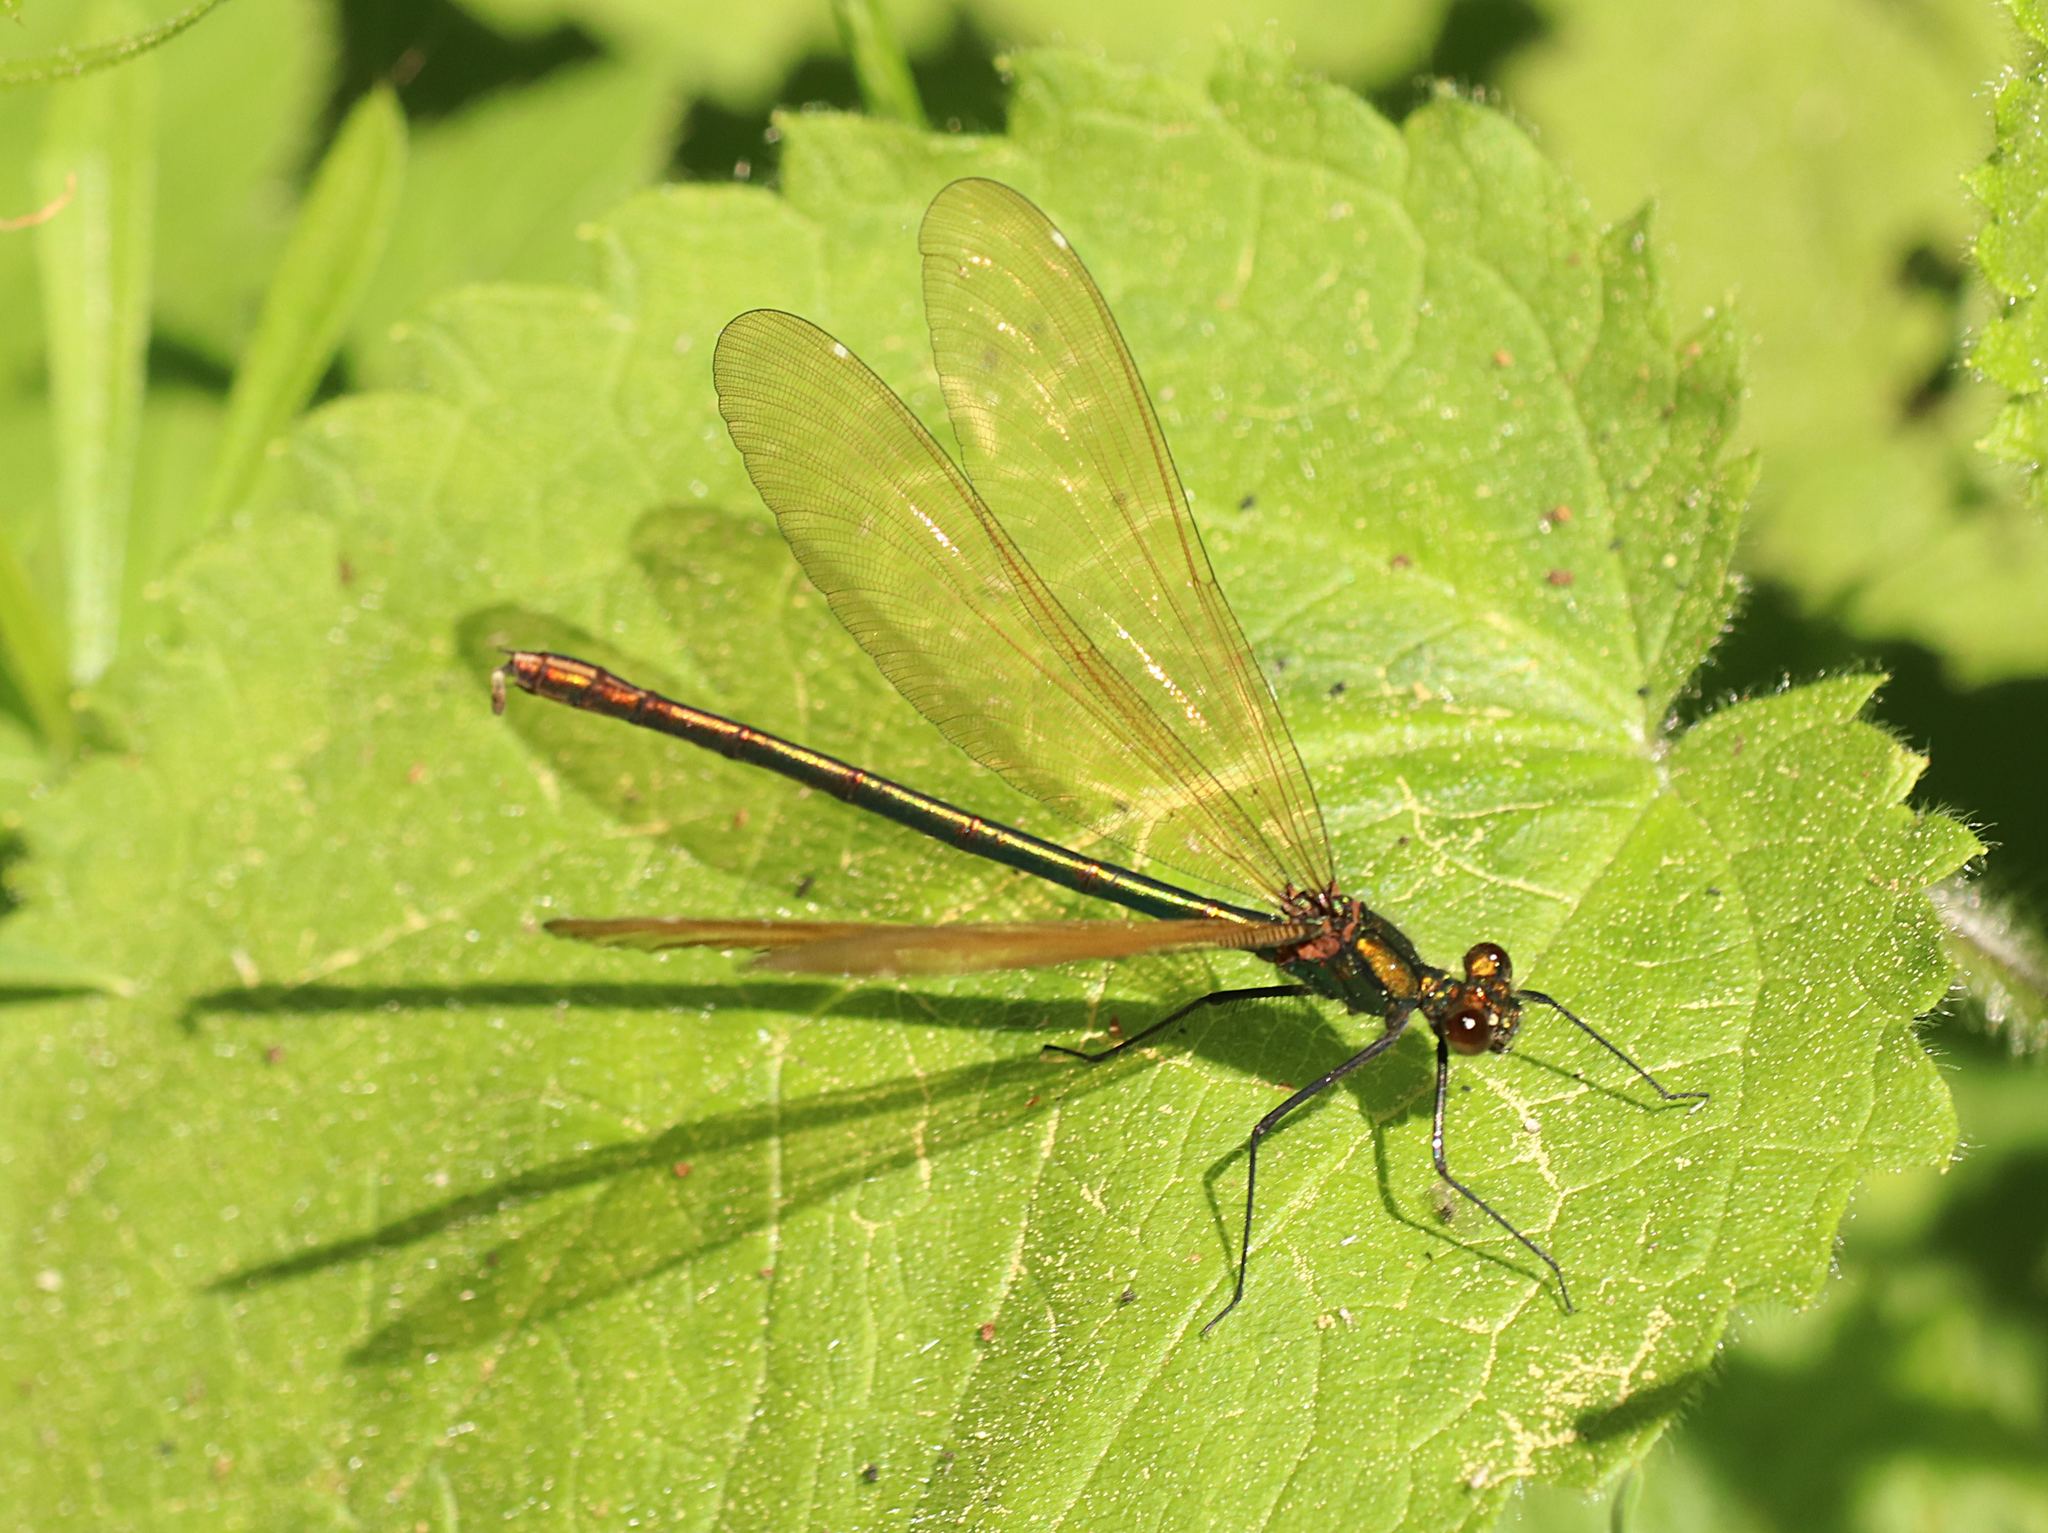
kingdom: Animalia
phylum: Arthropoda
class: Insecta
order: Odonata
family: Calopterygidae
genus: Calopteryx
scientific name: Calopteryx virgo
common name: Beautiful demoiselle
